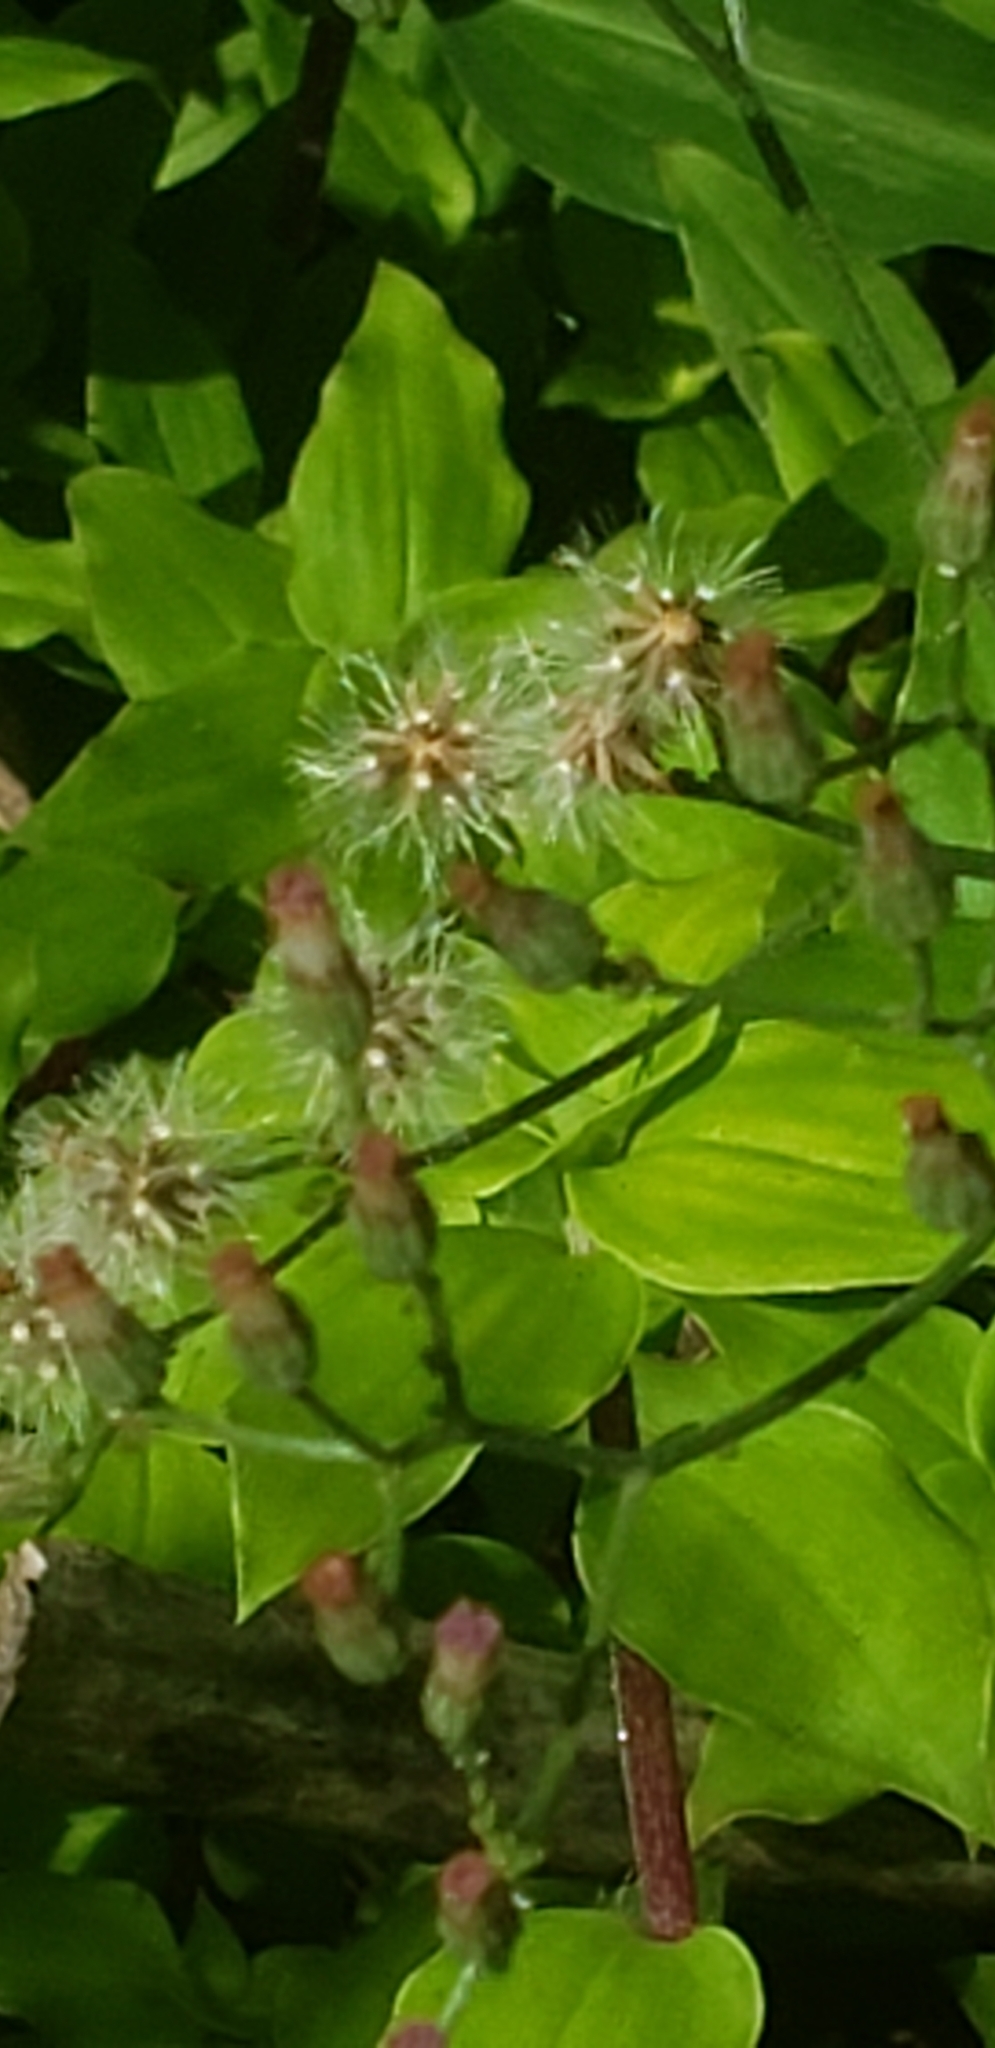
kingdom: Plantae
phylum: Tracheophyta
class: Magnoliopsida
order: Asterales
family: Asteraceae
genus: Cyanthillium
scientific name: Cyanthillium cinereum
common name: Little ironweed
